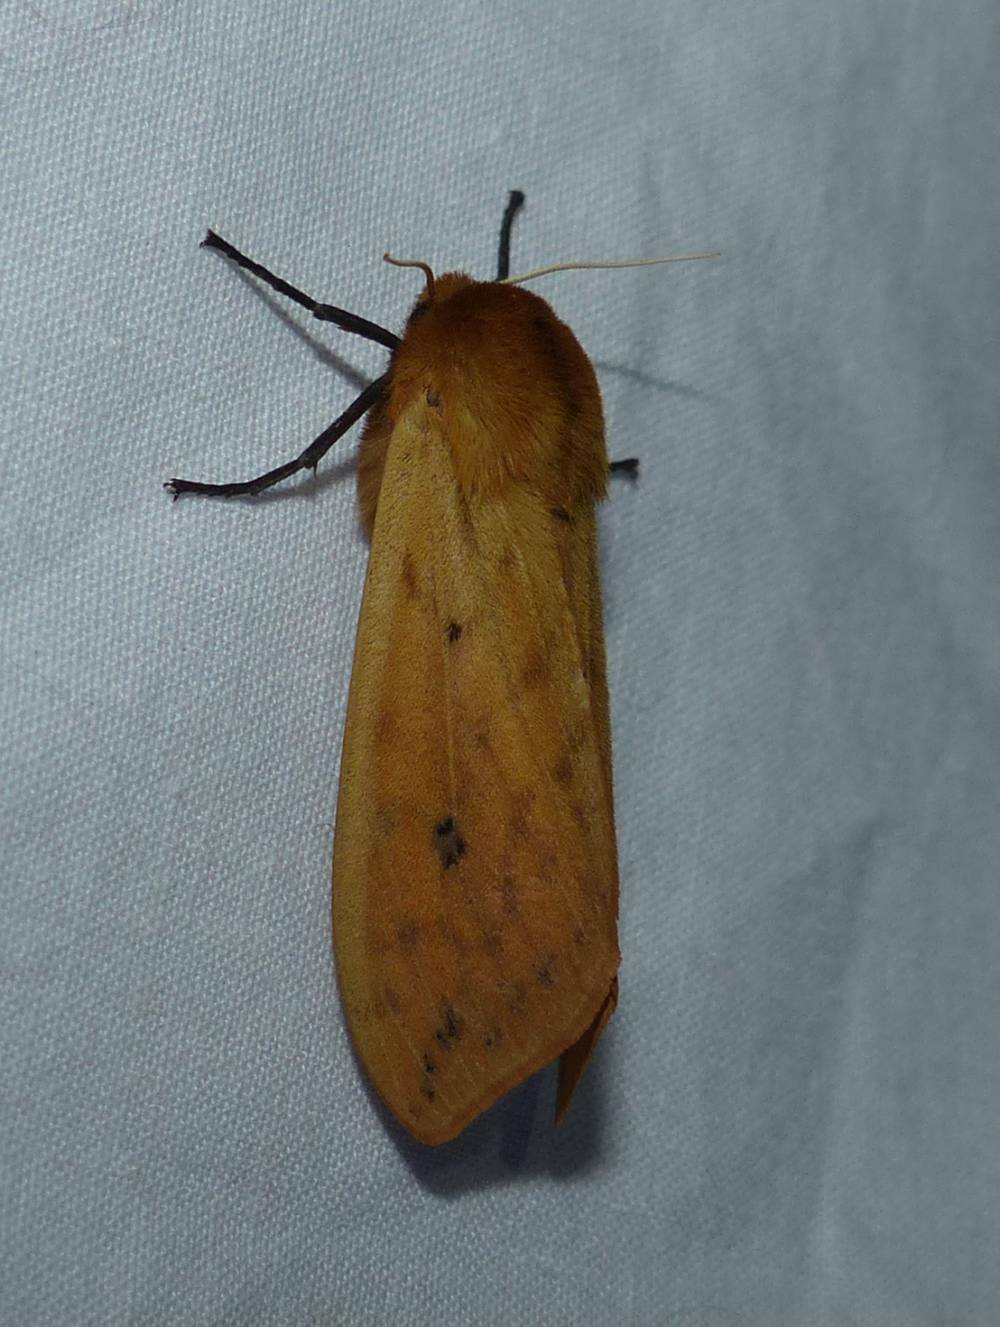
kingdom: Animalia
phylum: Arthropoda
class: Insecta
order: Lepidoptera
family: Erebidae
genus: Pyrrharctia
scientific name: Pyrrharctia isabella
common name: Isabella tiger moth
